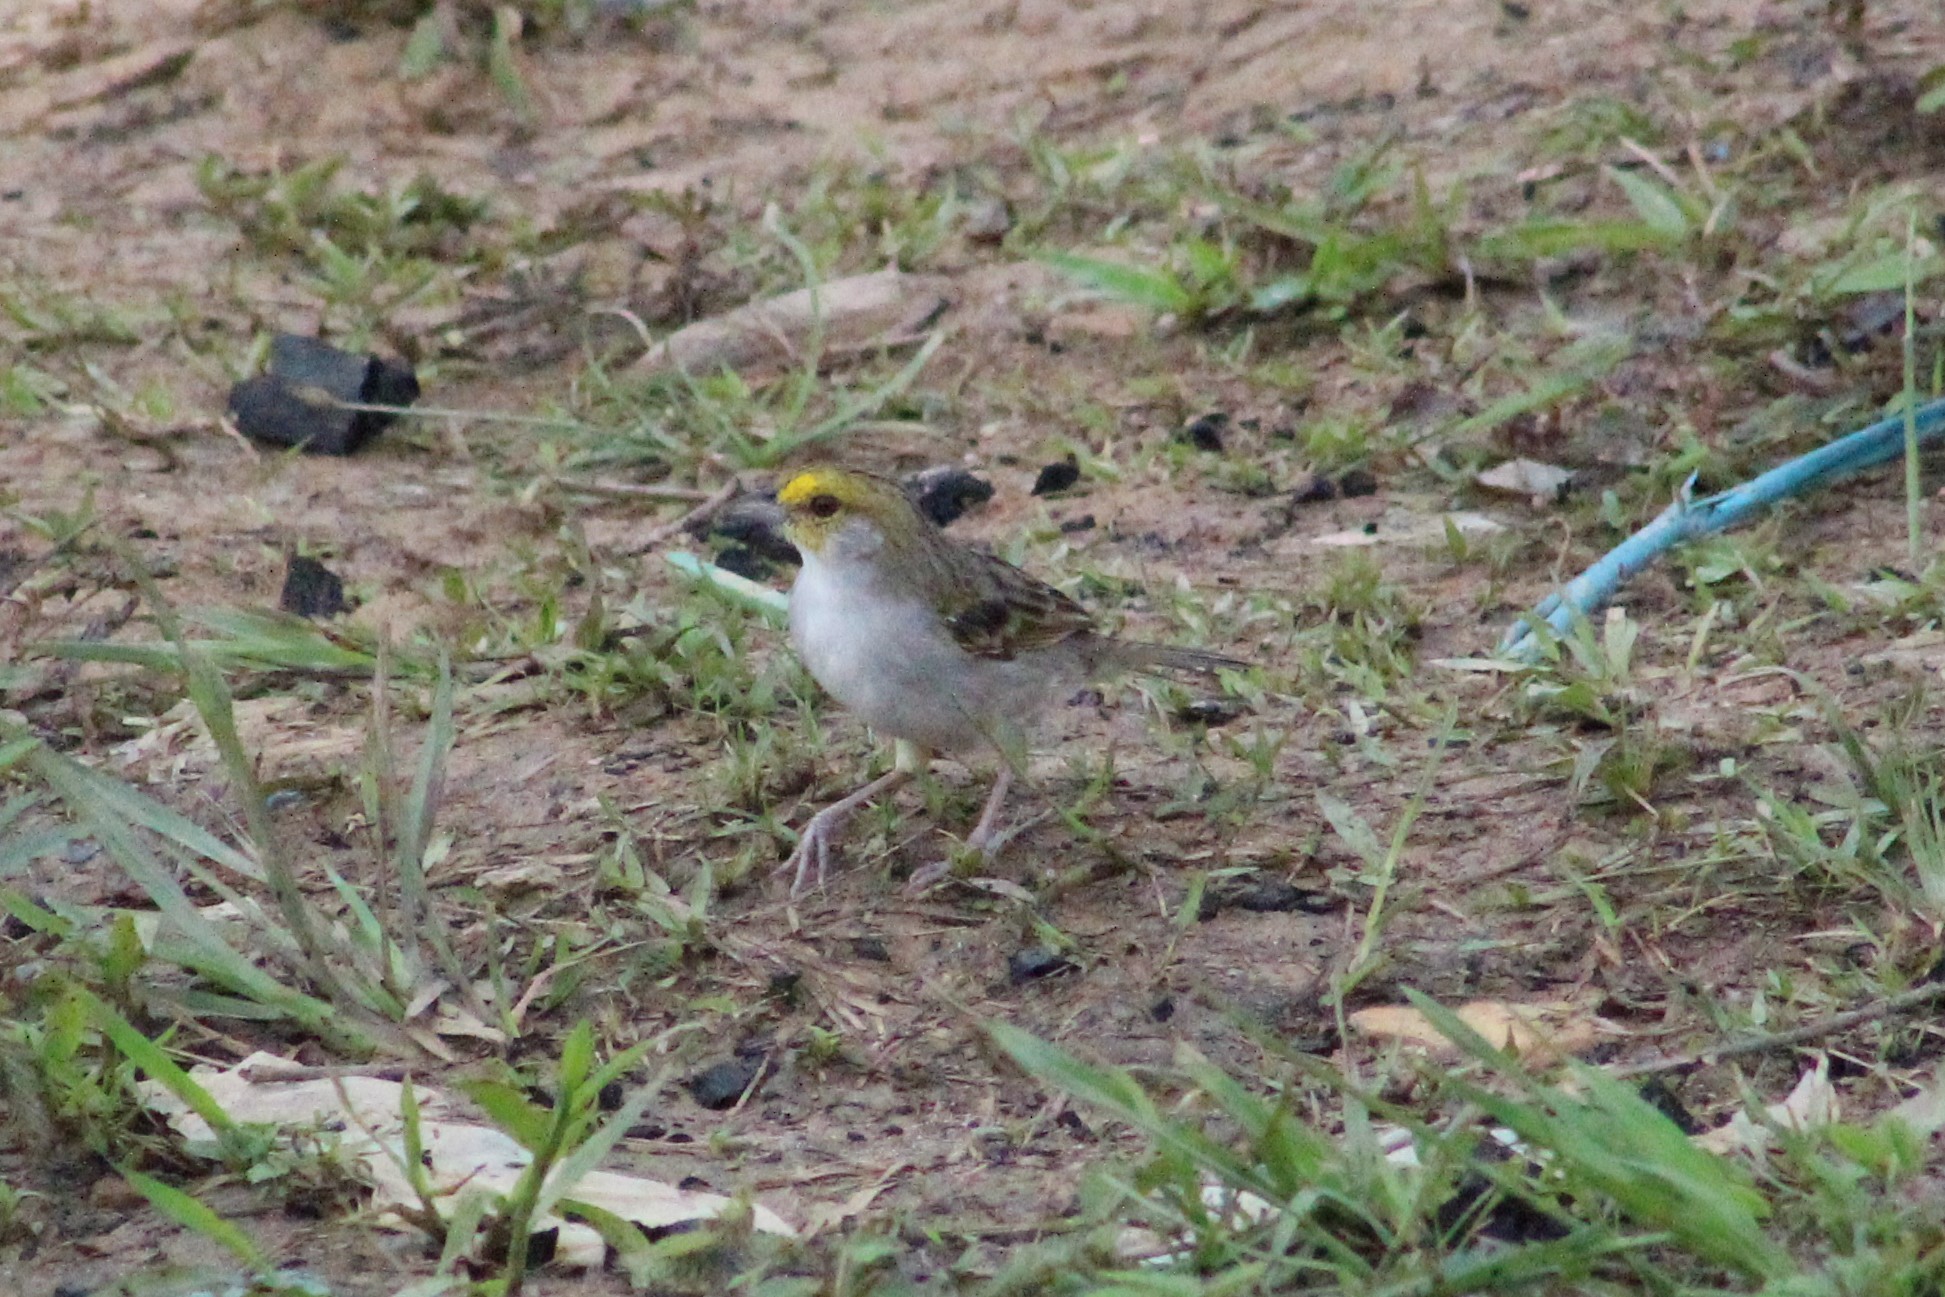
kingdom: Animalia
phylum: Chordata
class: Aves
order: Passeriformes
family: Passerellidae
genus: Ammodramus
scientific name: Ammodramus aurifrons
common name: Yellow-browed sparrow
